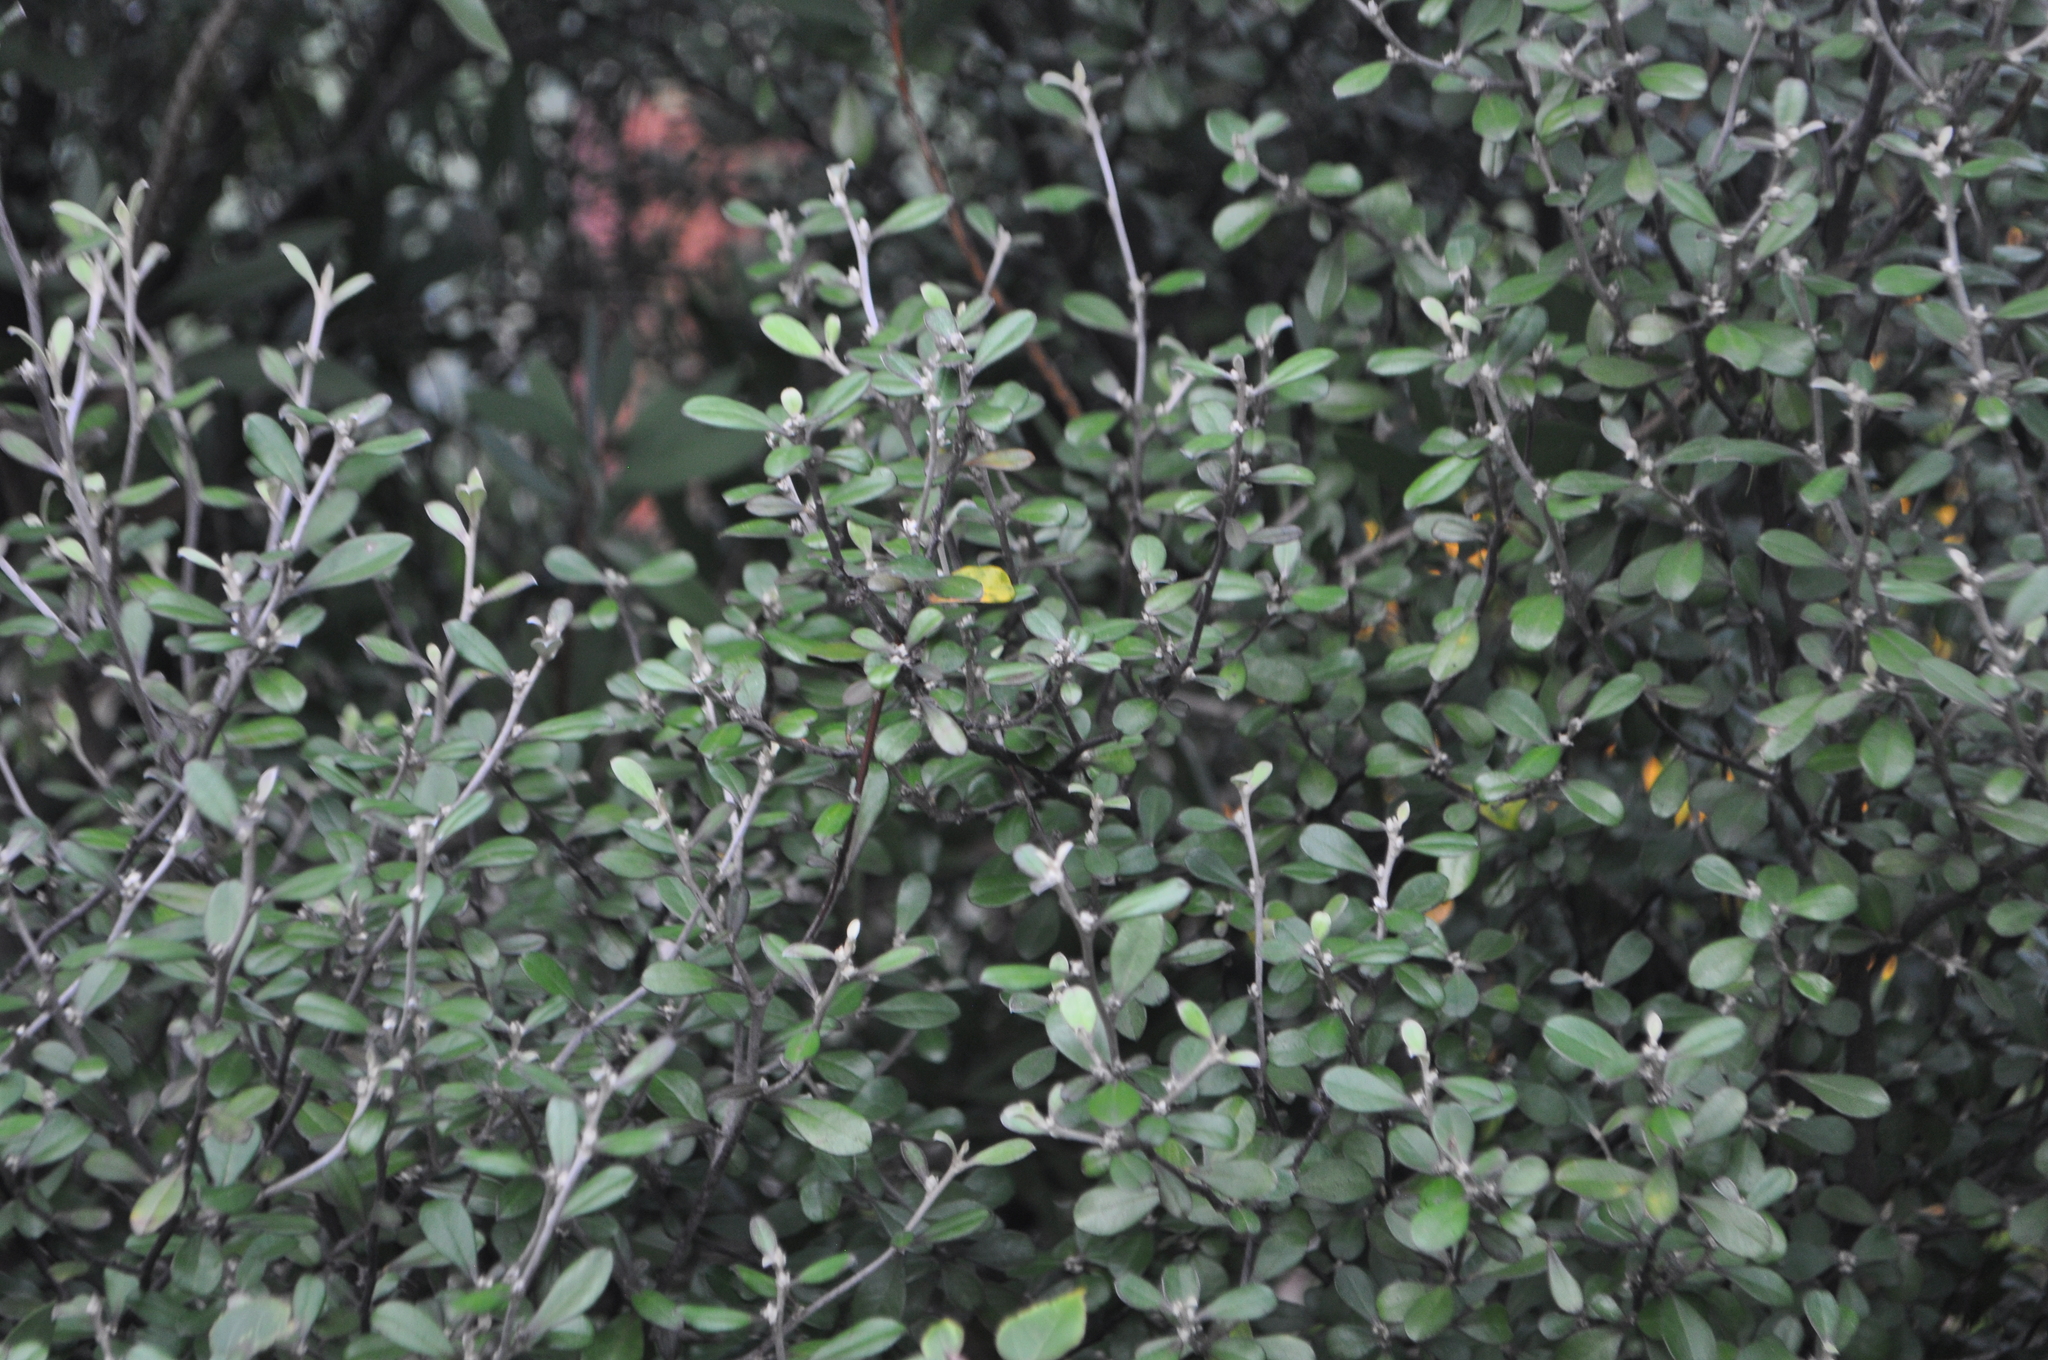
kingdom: Plantae
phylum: Tracheophyta
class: Magnoliopsida
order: Asterales
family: Argophyllaceae
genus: Corokia
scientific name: Corokia virgata
